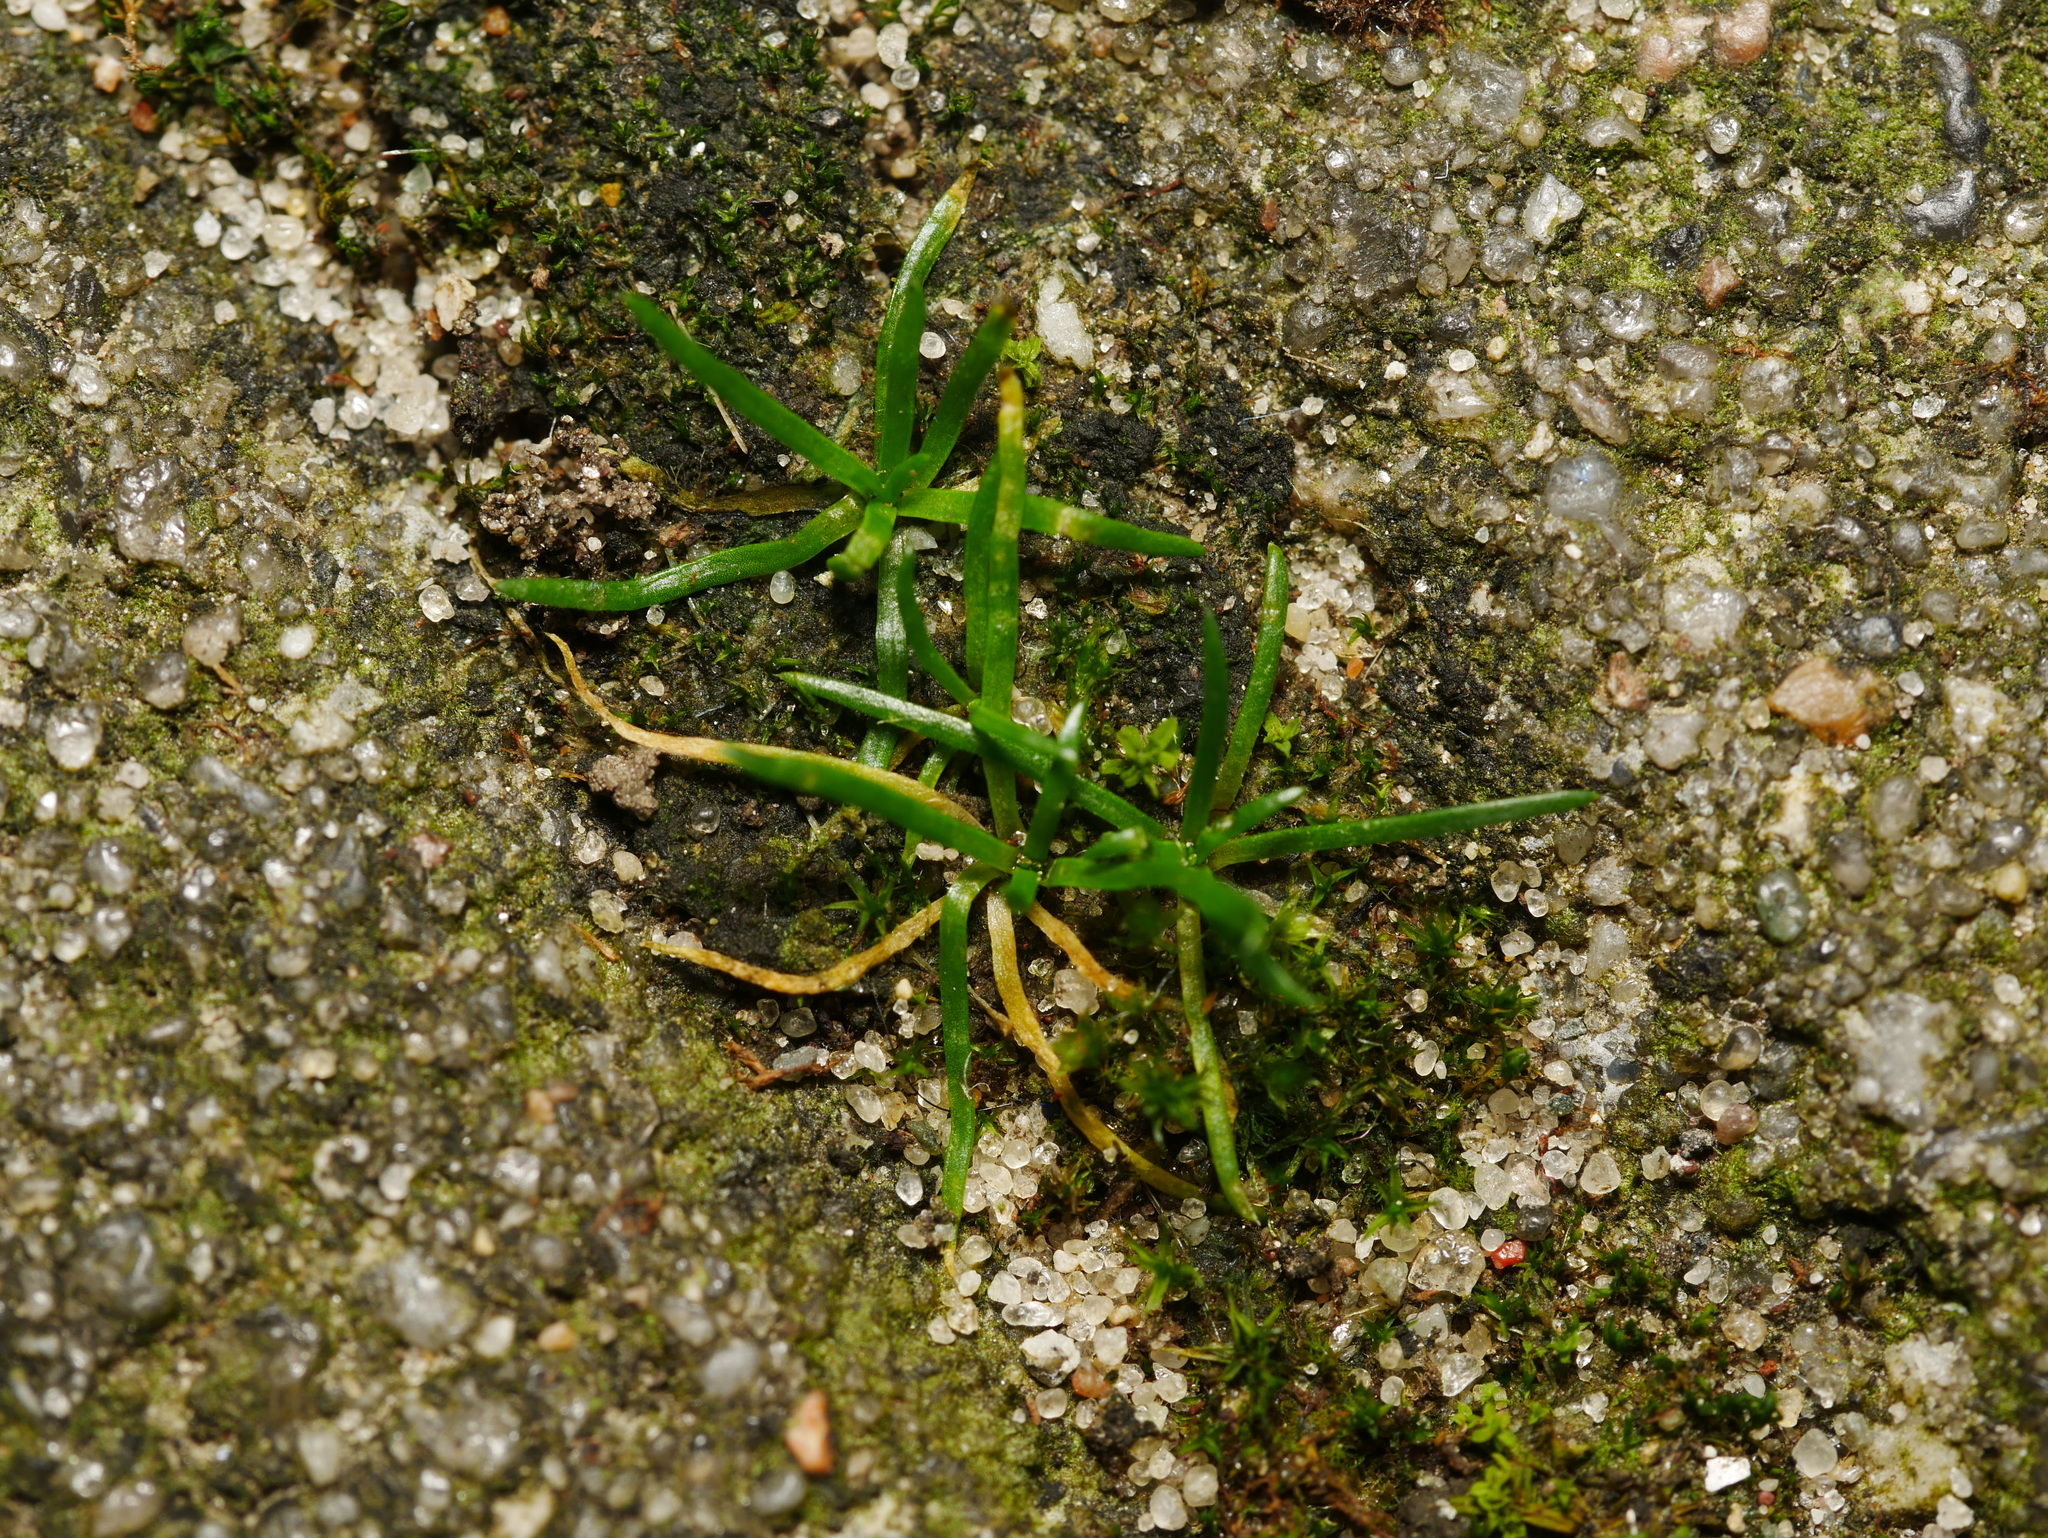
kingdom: Plantae
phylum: Tracheophyta
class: Magnoliopsida
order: Caryophyllales
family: Caryophyllaceae
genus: Sagina
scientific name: Sagina procumbens
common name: Procumbent pearlwort
